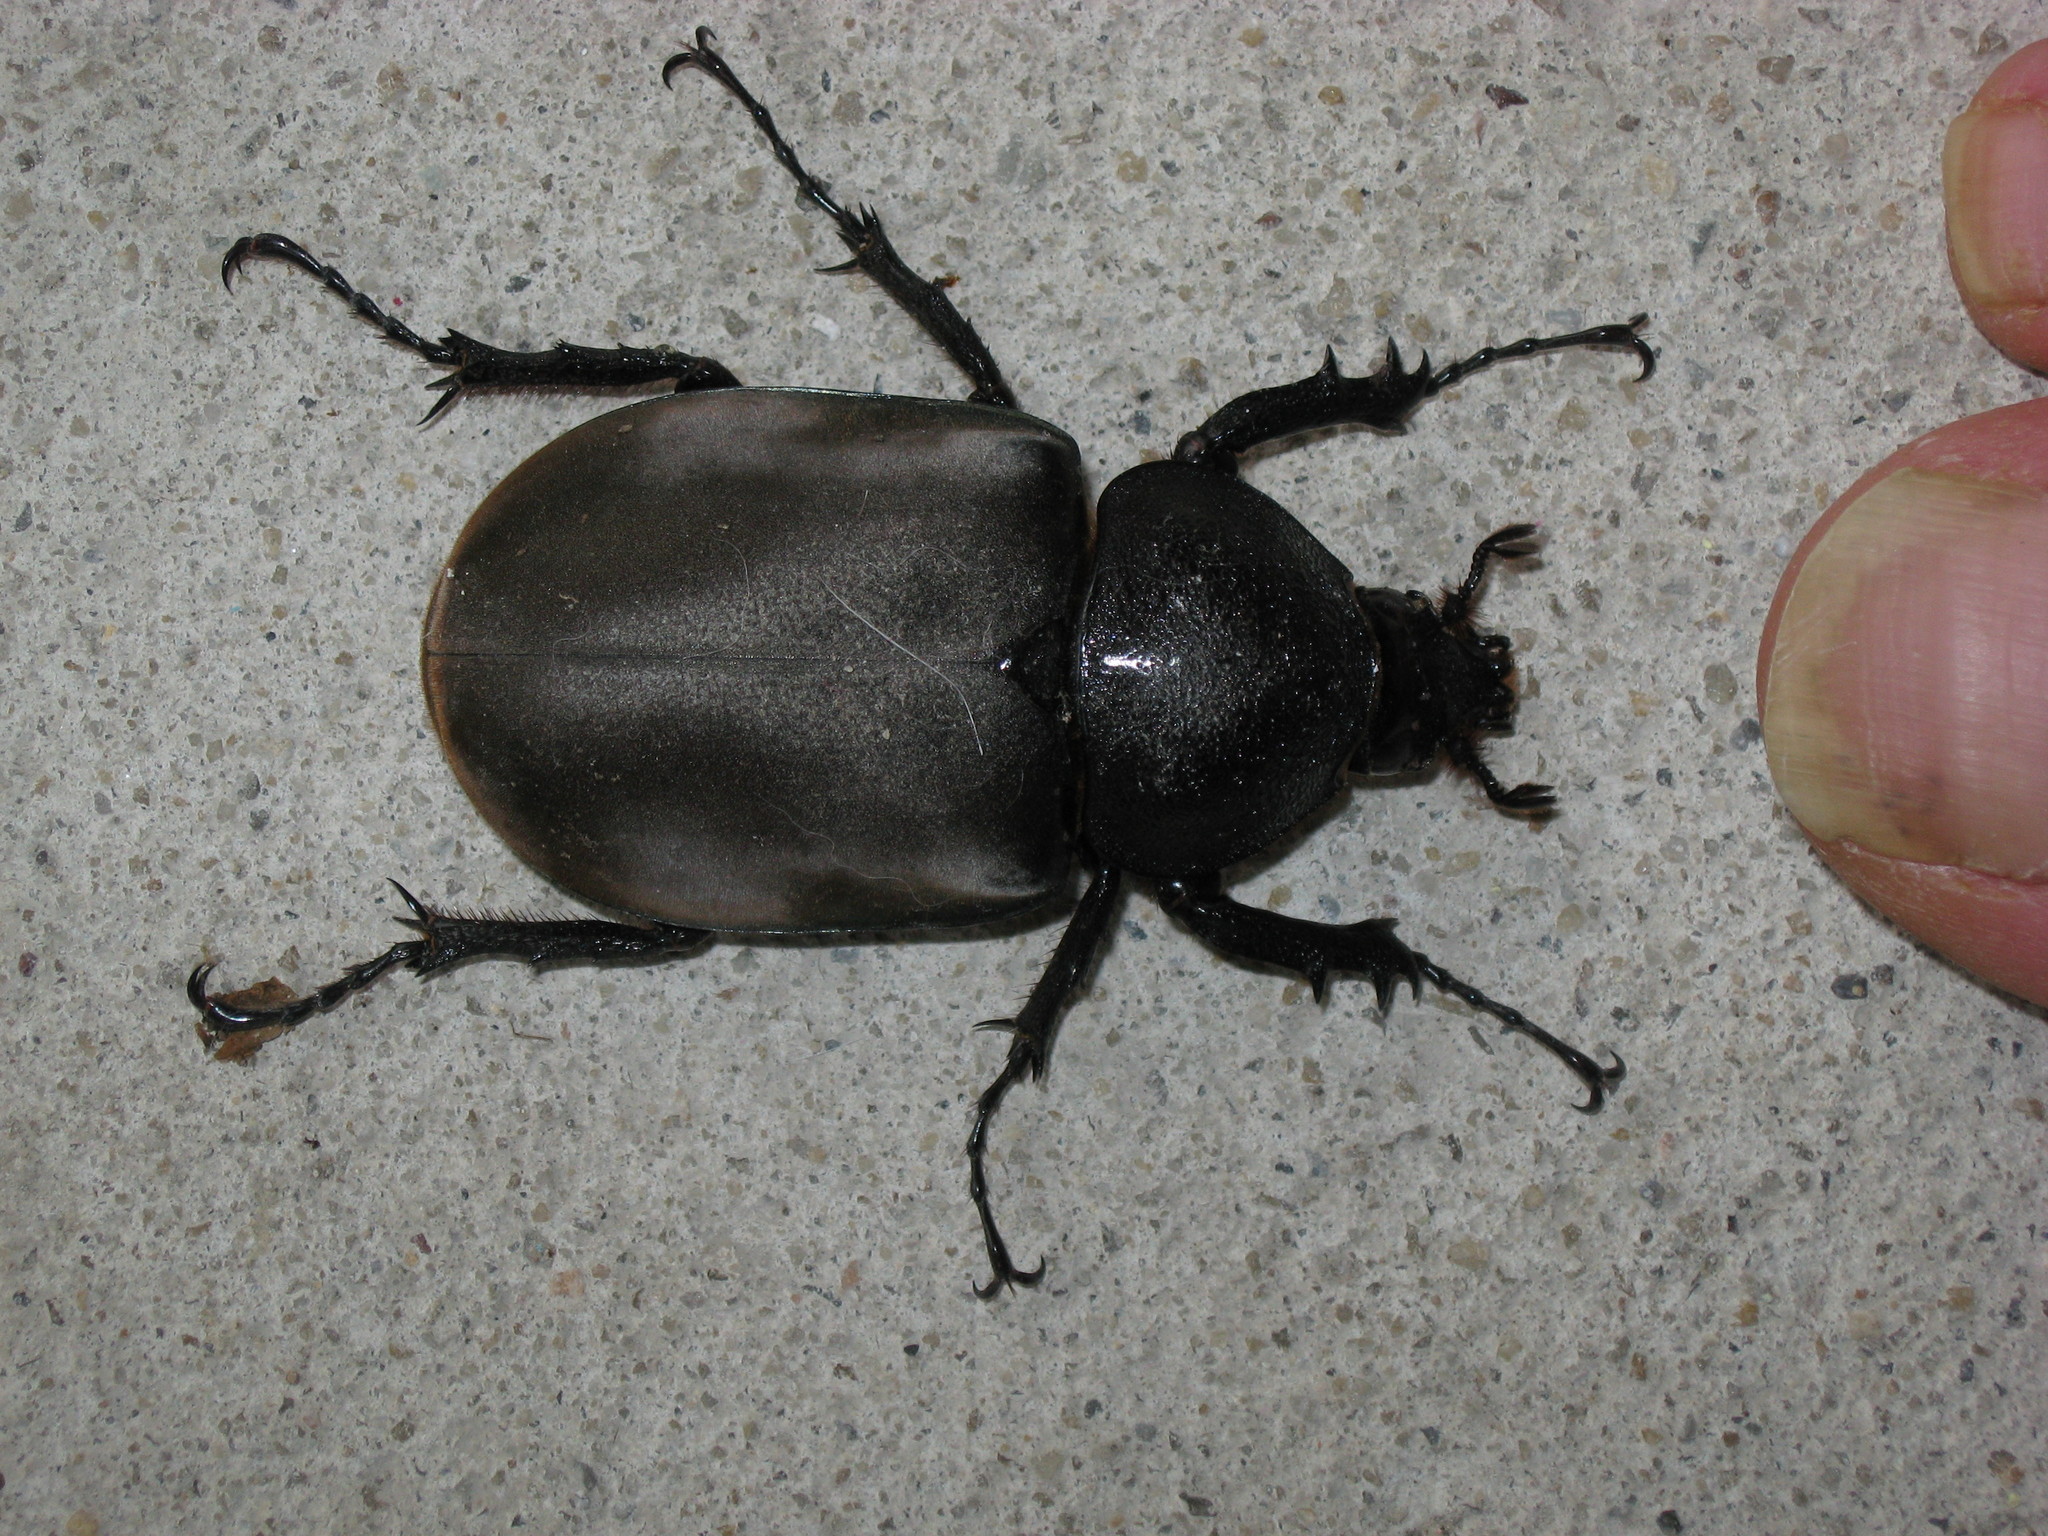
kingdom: Animalia
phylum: Arthropoda
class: Insecta
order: Coleoptera
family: Scarabaeidae
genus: Chalcosoma
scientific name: Chalcosoma moellenkampi
